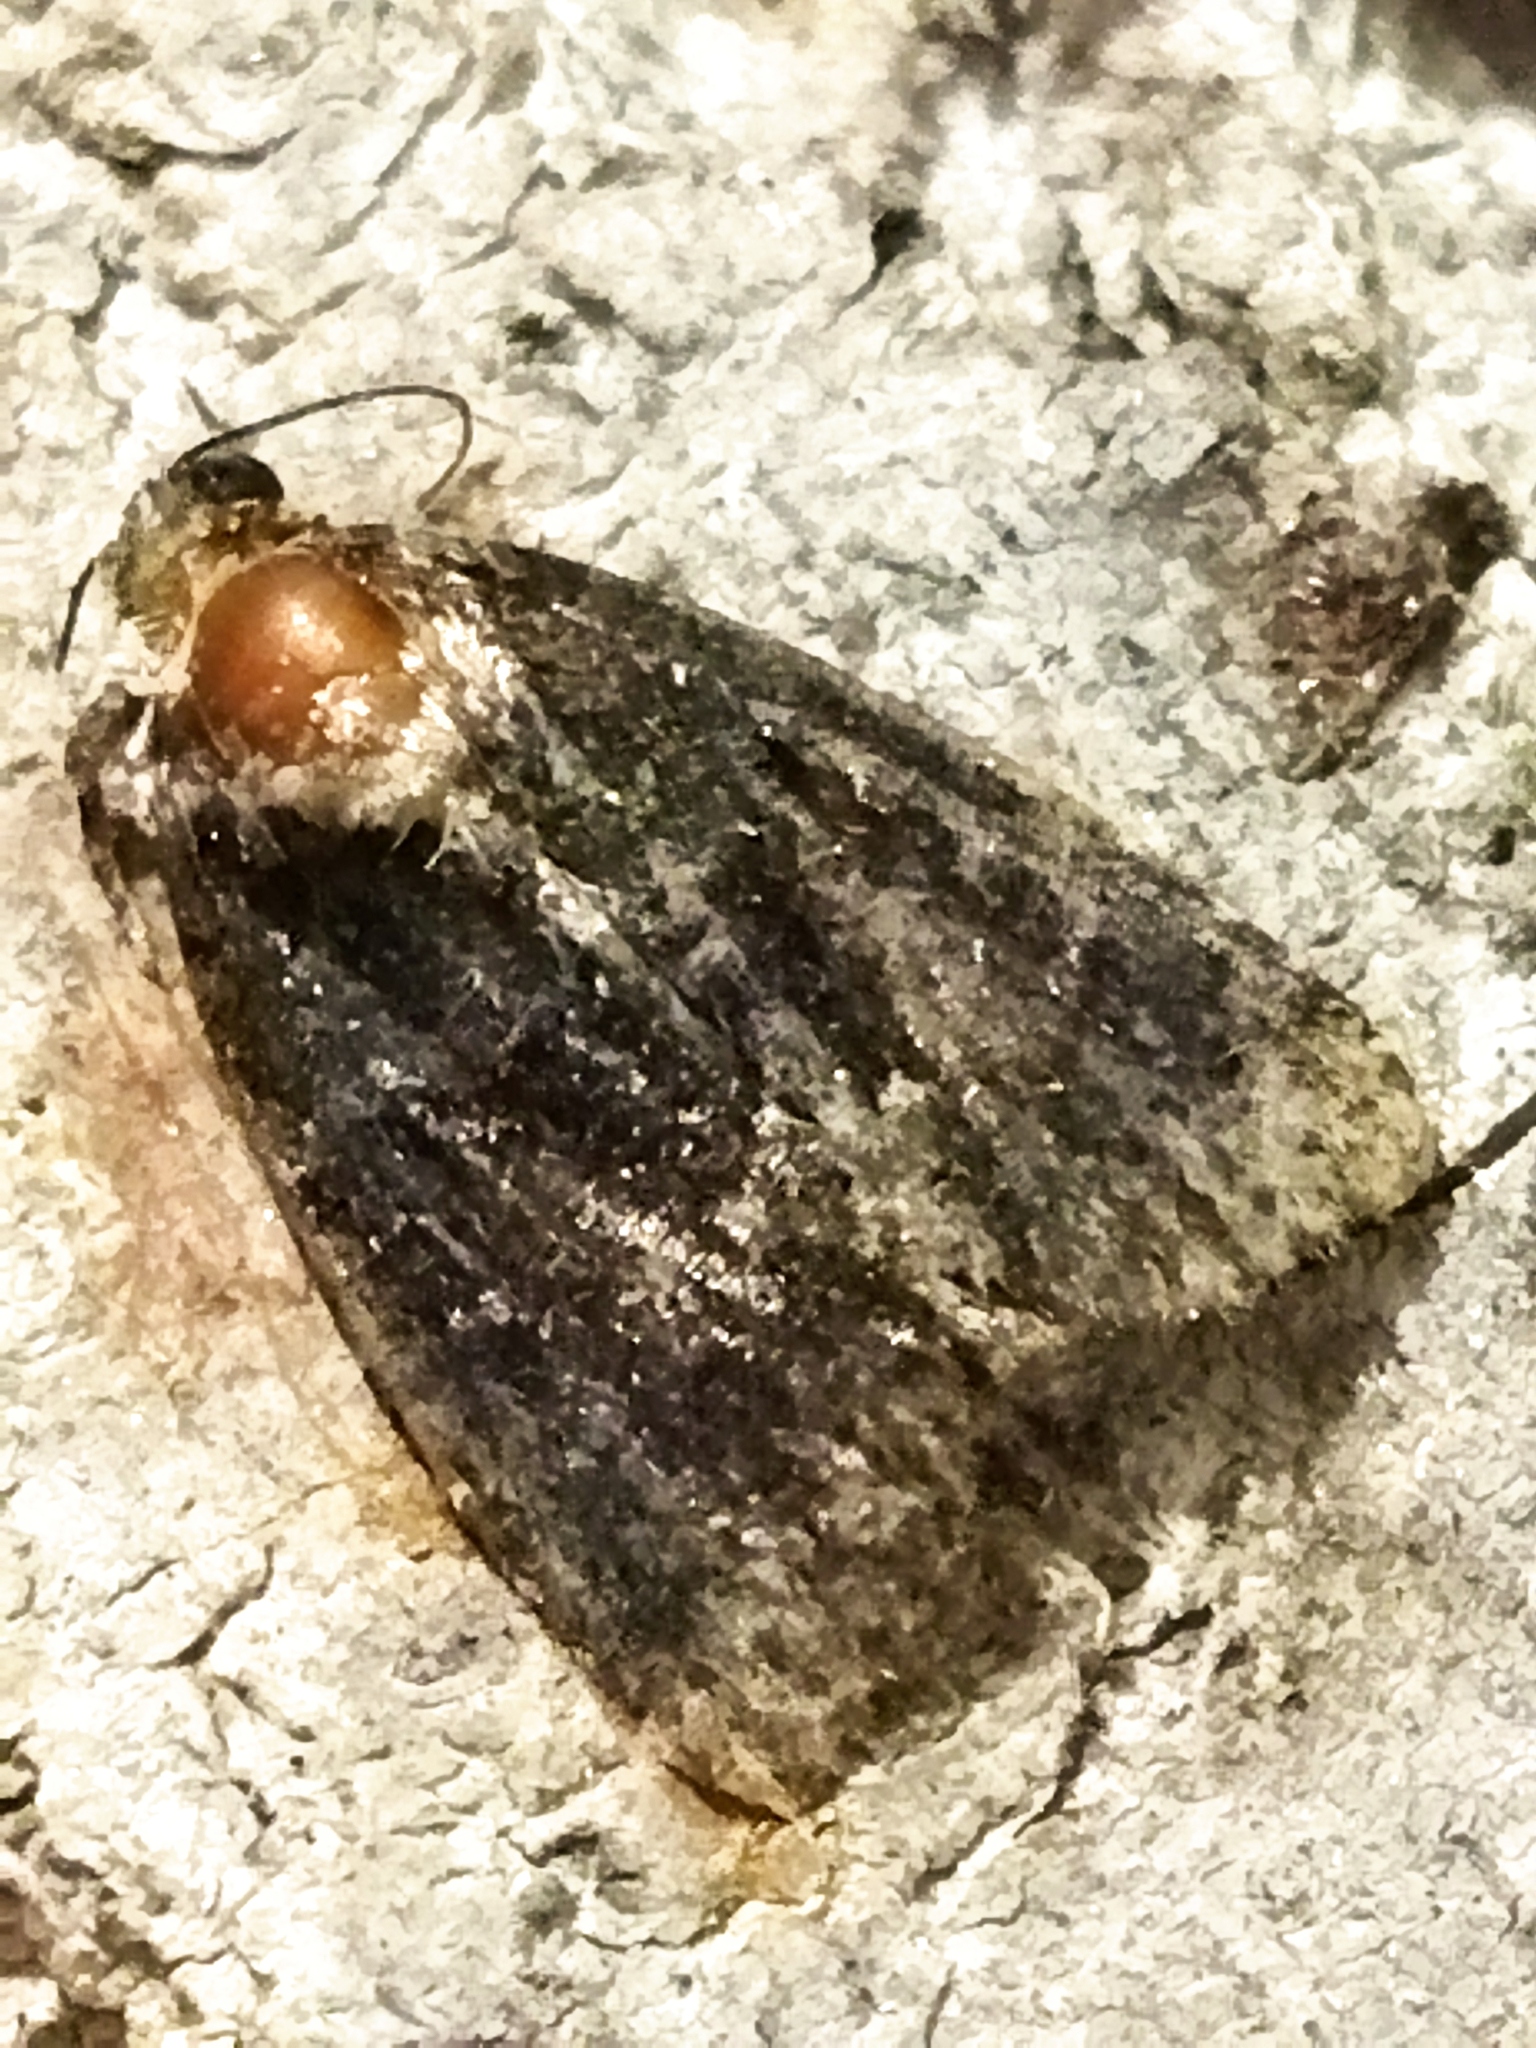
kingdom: Animalia
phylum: Arthropoda
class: Insecta
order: Lepidoptera
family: Noctuidae
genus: Cryphia
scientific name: Cryphia
